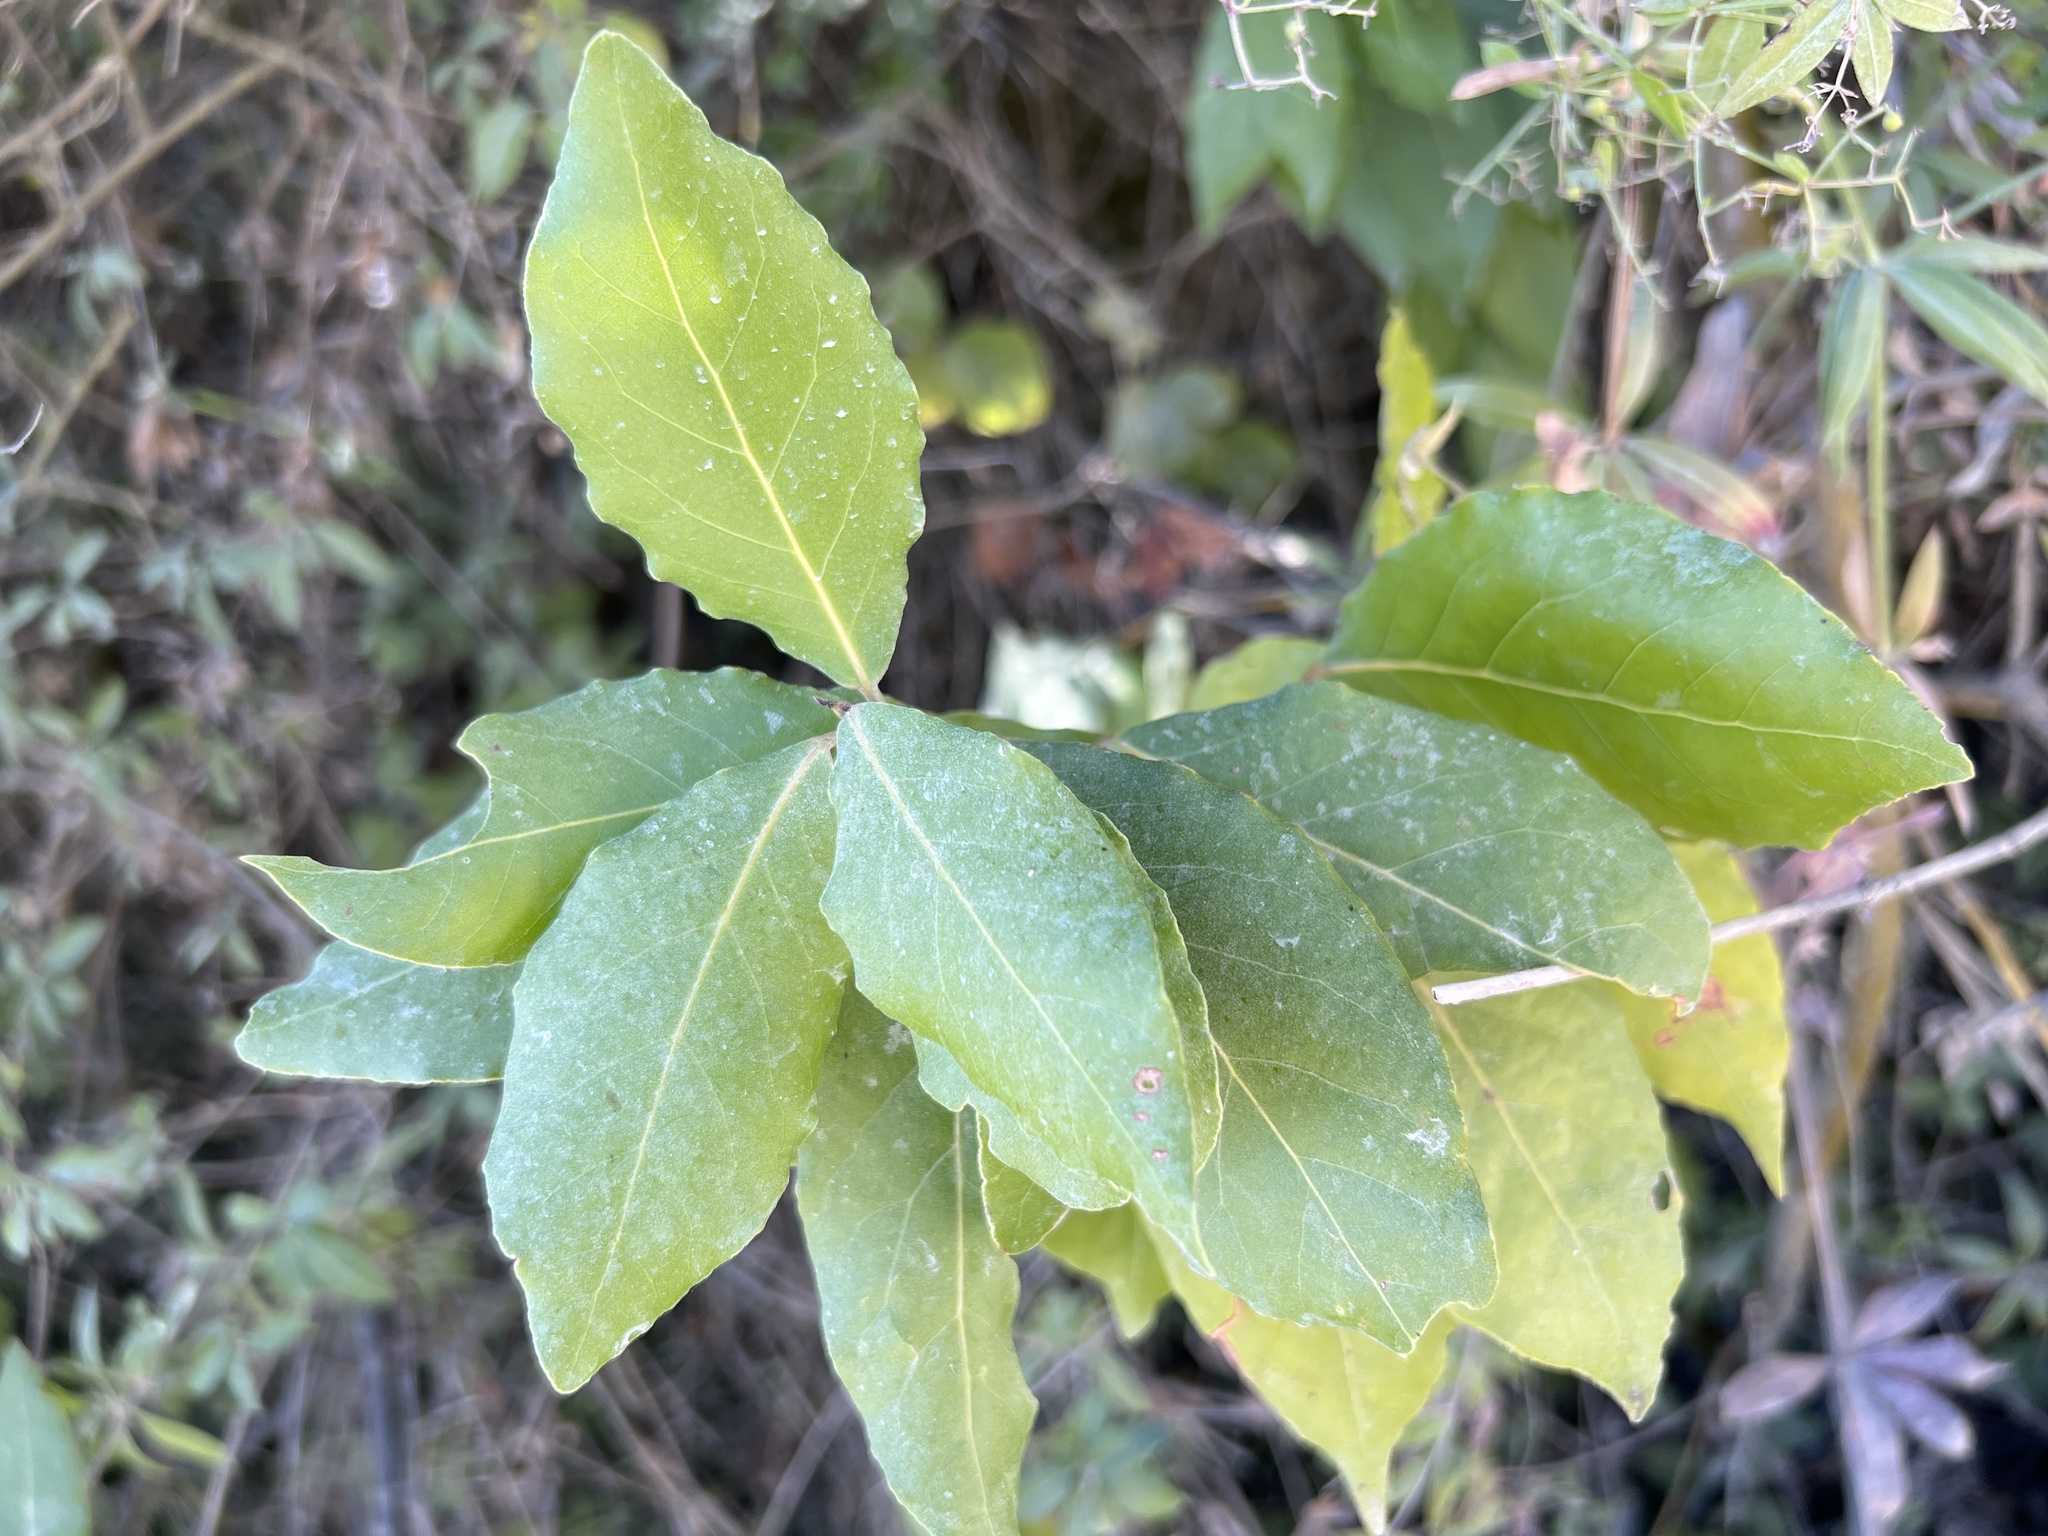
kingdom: Plantae
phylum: Tracheophyta
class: Magnoliopsida
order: Laurales
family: Lauraceae
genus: Laurus
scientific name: Laurus nobilis
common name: Bay
